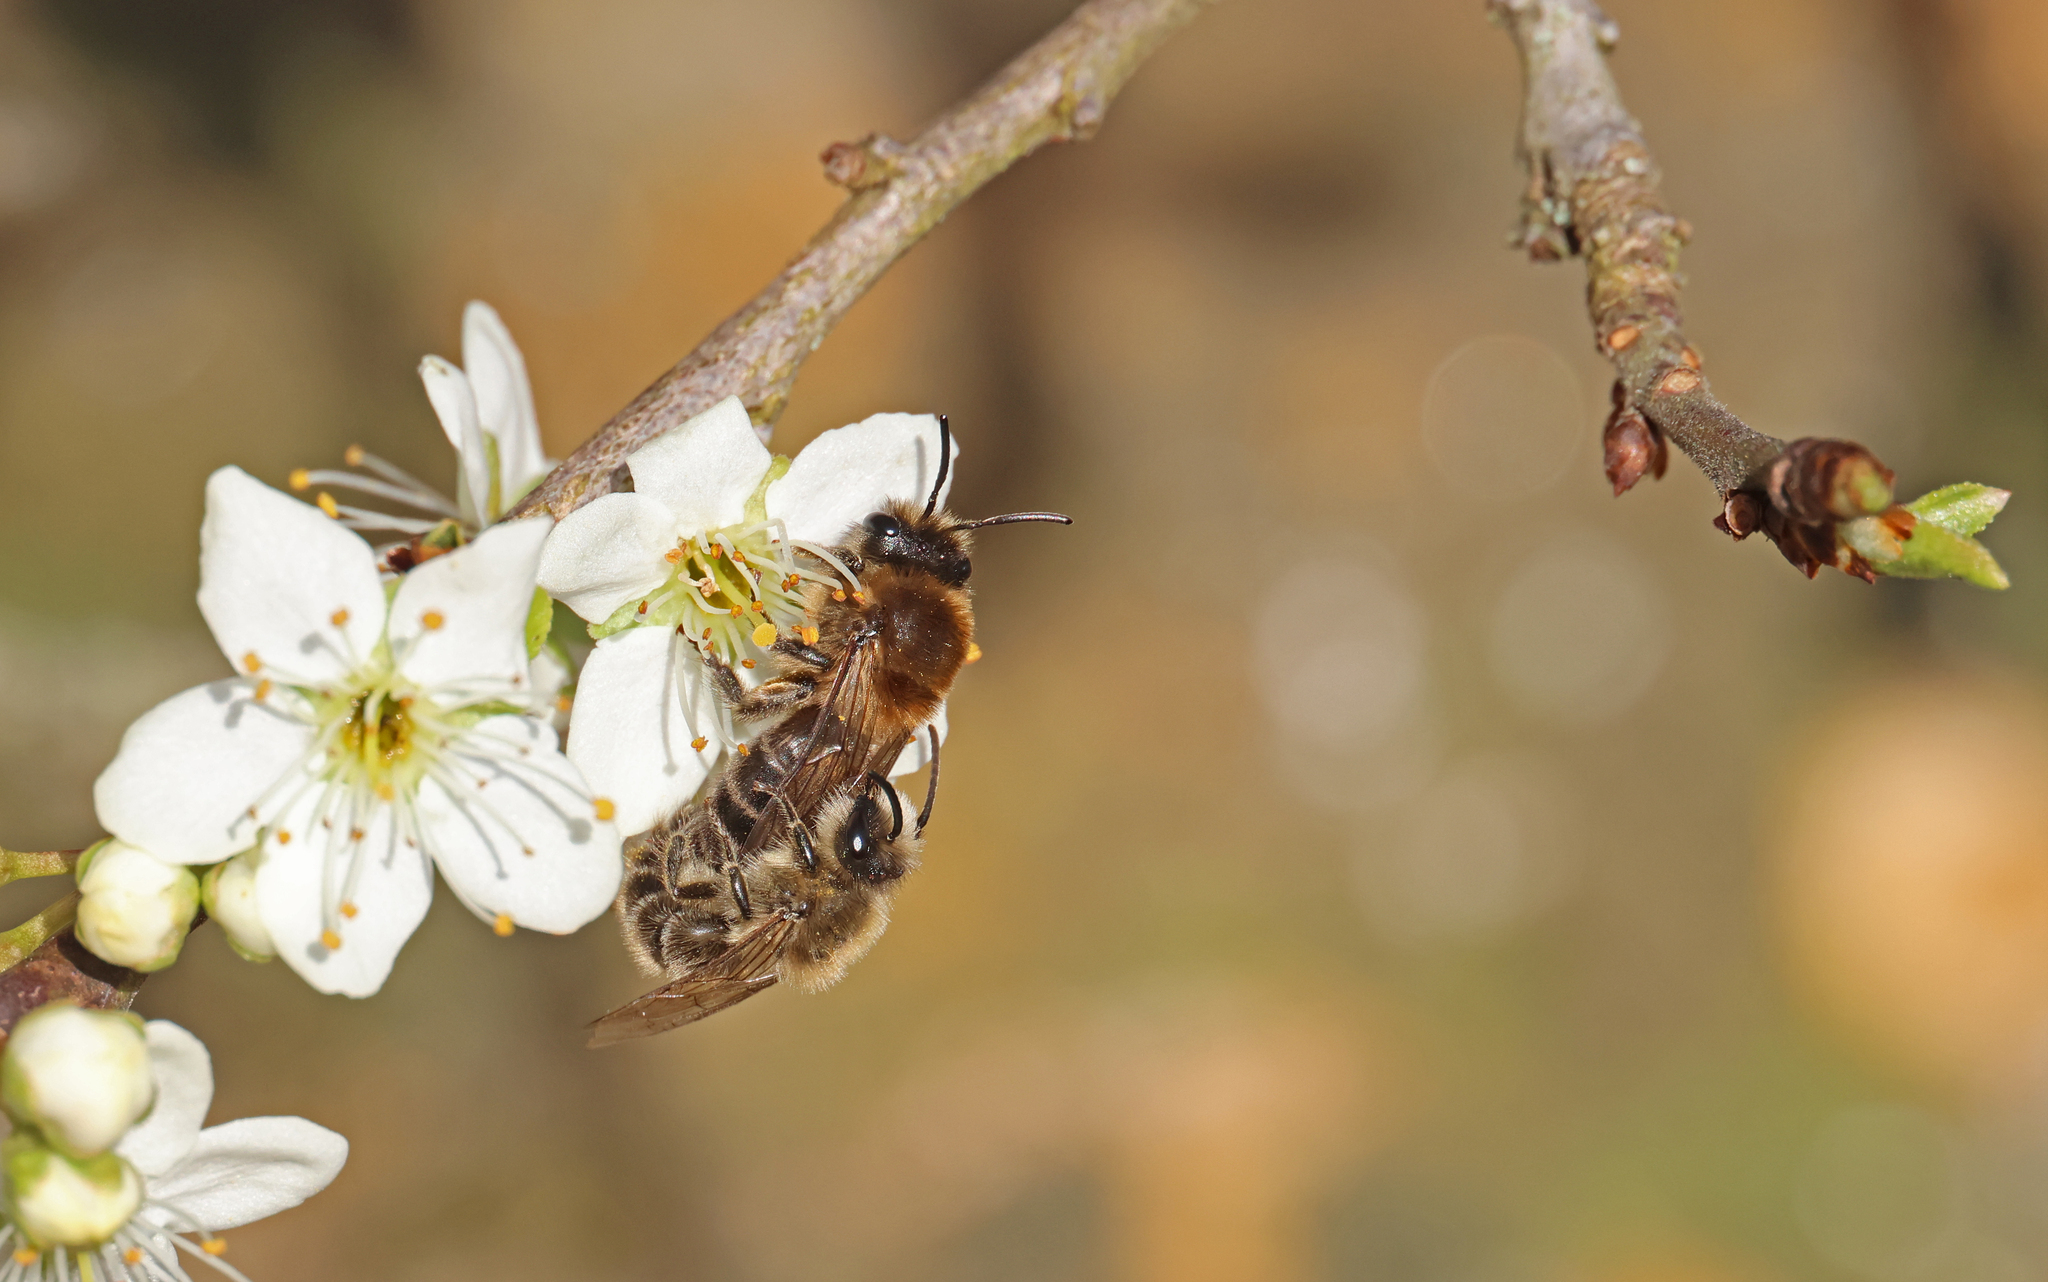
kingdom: Animalia
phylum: Arthropoda
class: Insecta
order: Hymenoptera
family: Colletidae
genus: Colletes
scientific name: Colletes cunicularius
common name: Early colletes
